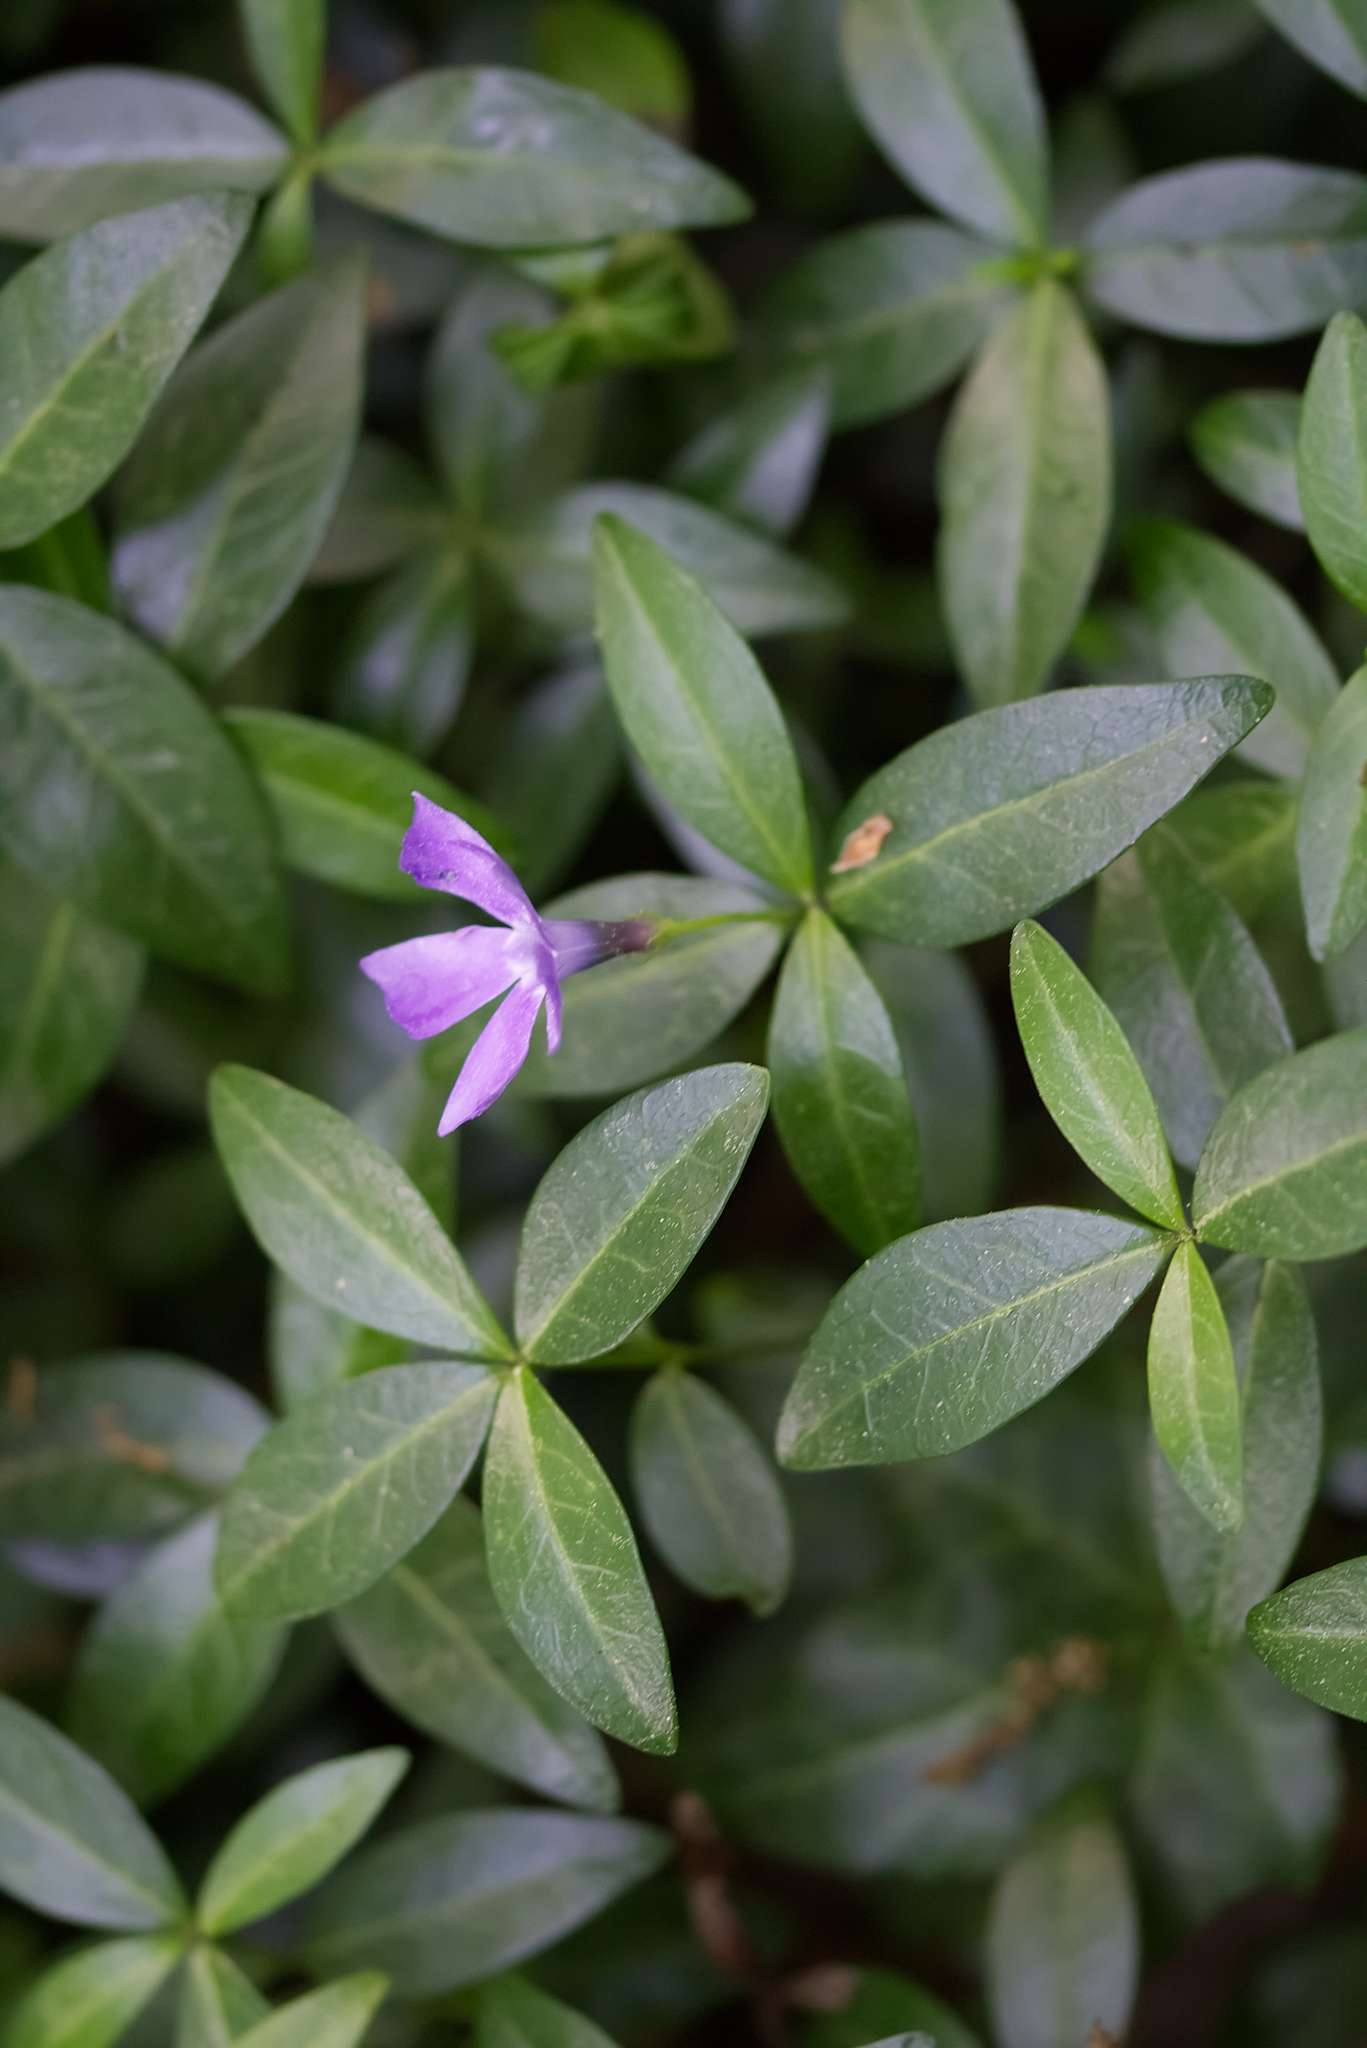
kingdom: Plantae
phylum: Tracheophyta
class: Magnoliopsida
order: Gentianales
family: Apocynaceae
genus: Vinca
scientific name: Vinca minor
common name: Lesser periwinkle
